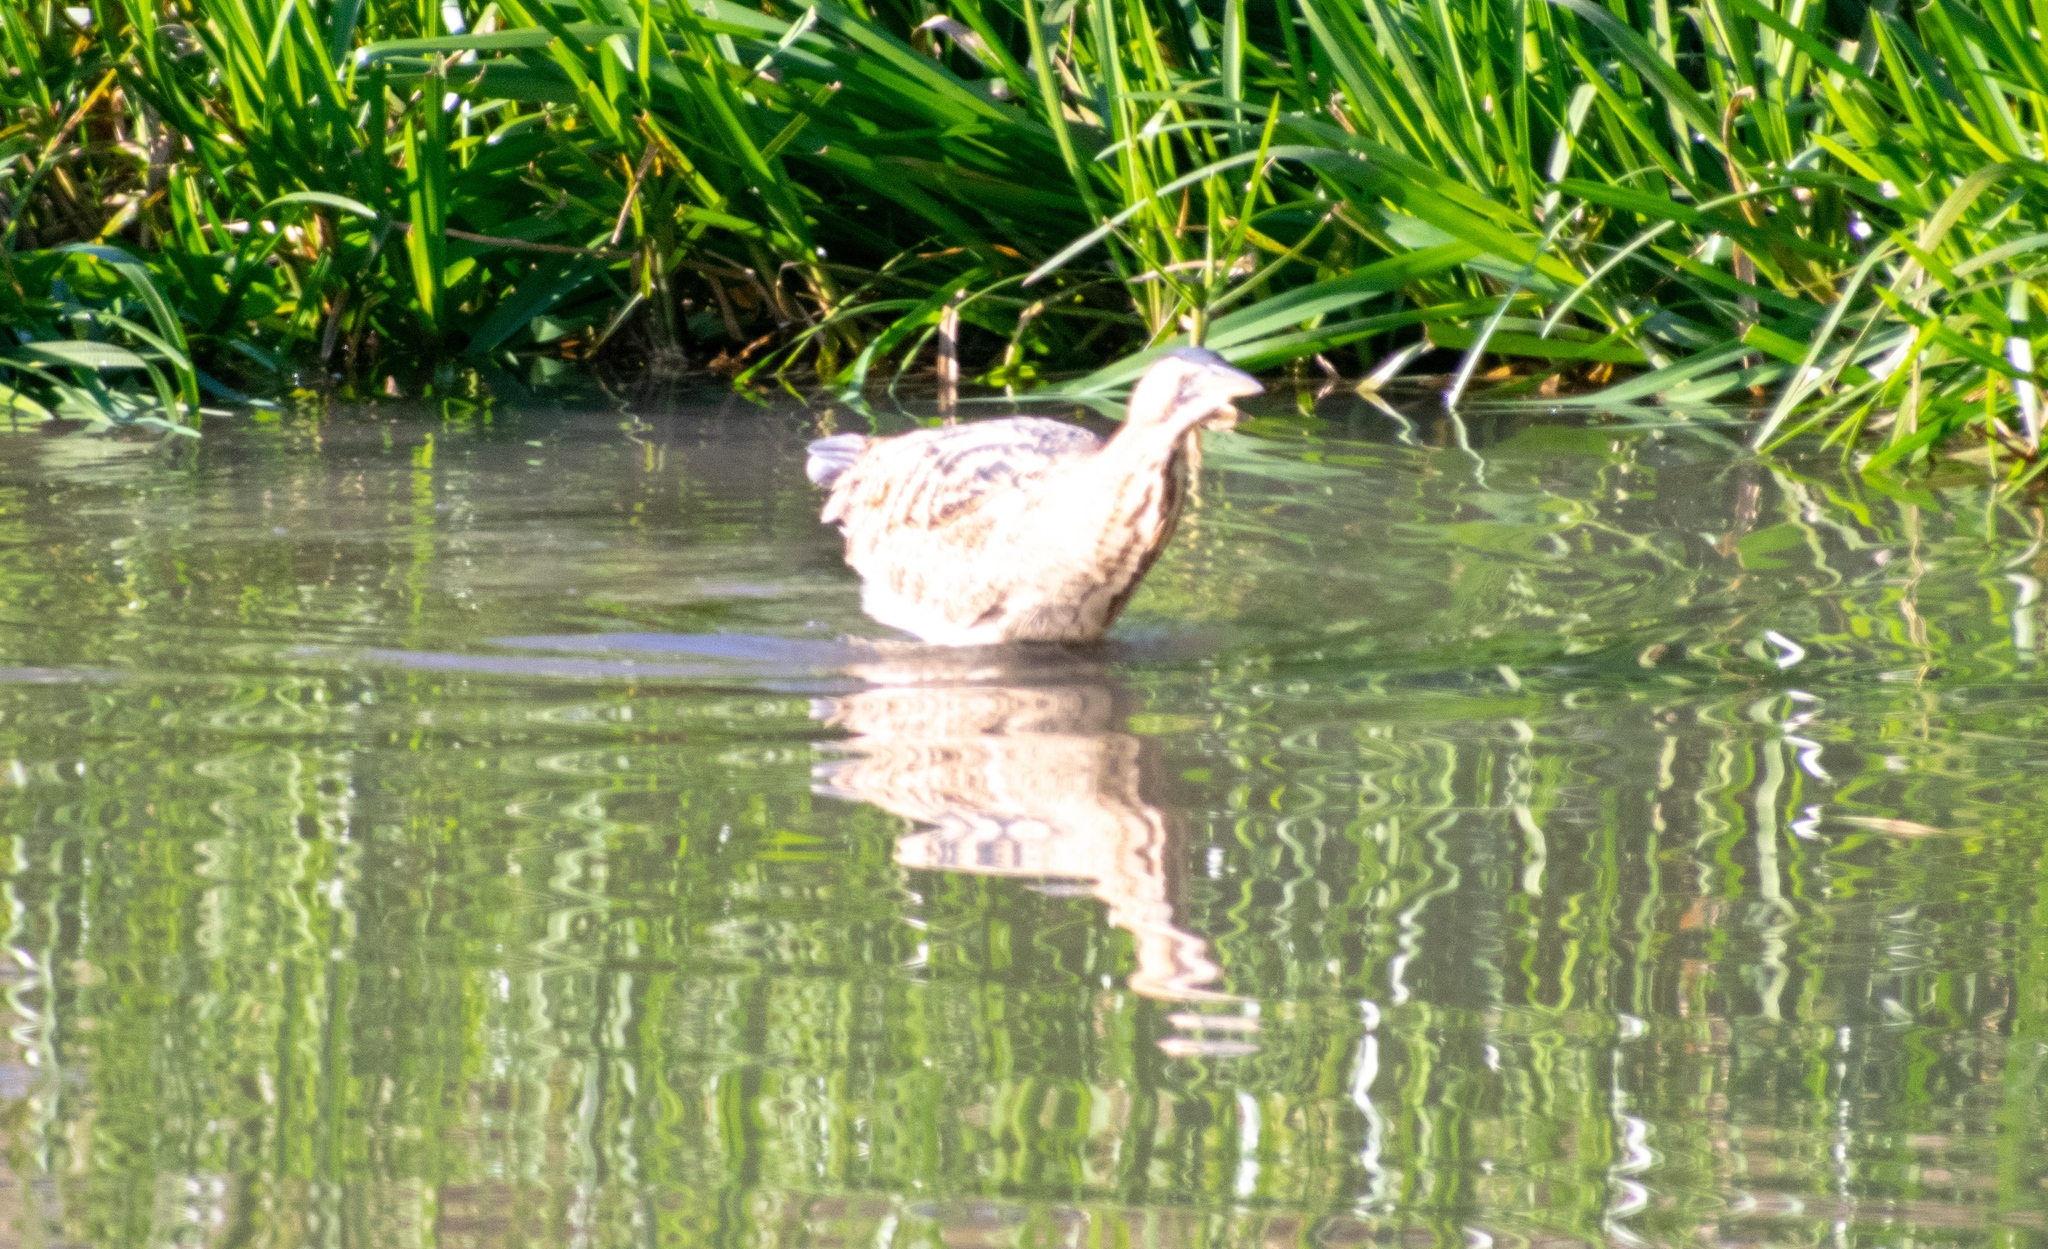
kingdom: Animalia
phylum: Chordata
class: Aves
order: Pelecaniformes
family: Ardeidae
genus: Botaurus
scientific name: Botaurus stellaris
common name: Eurasian bittern
